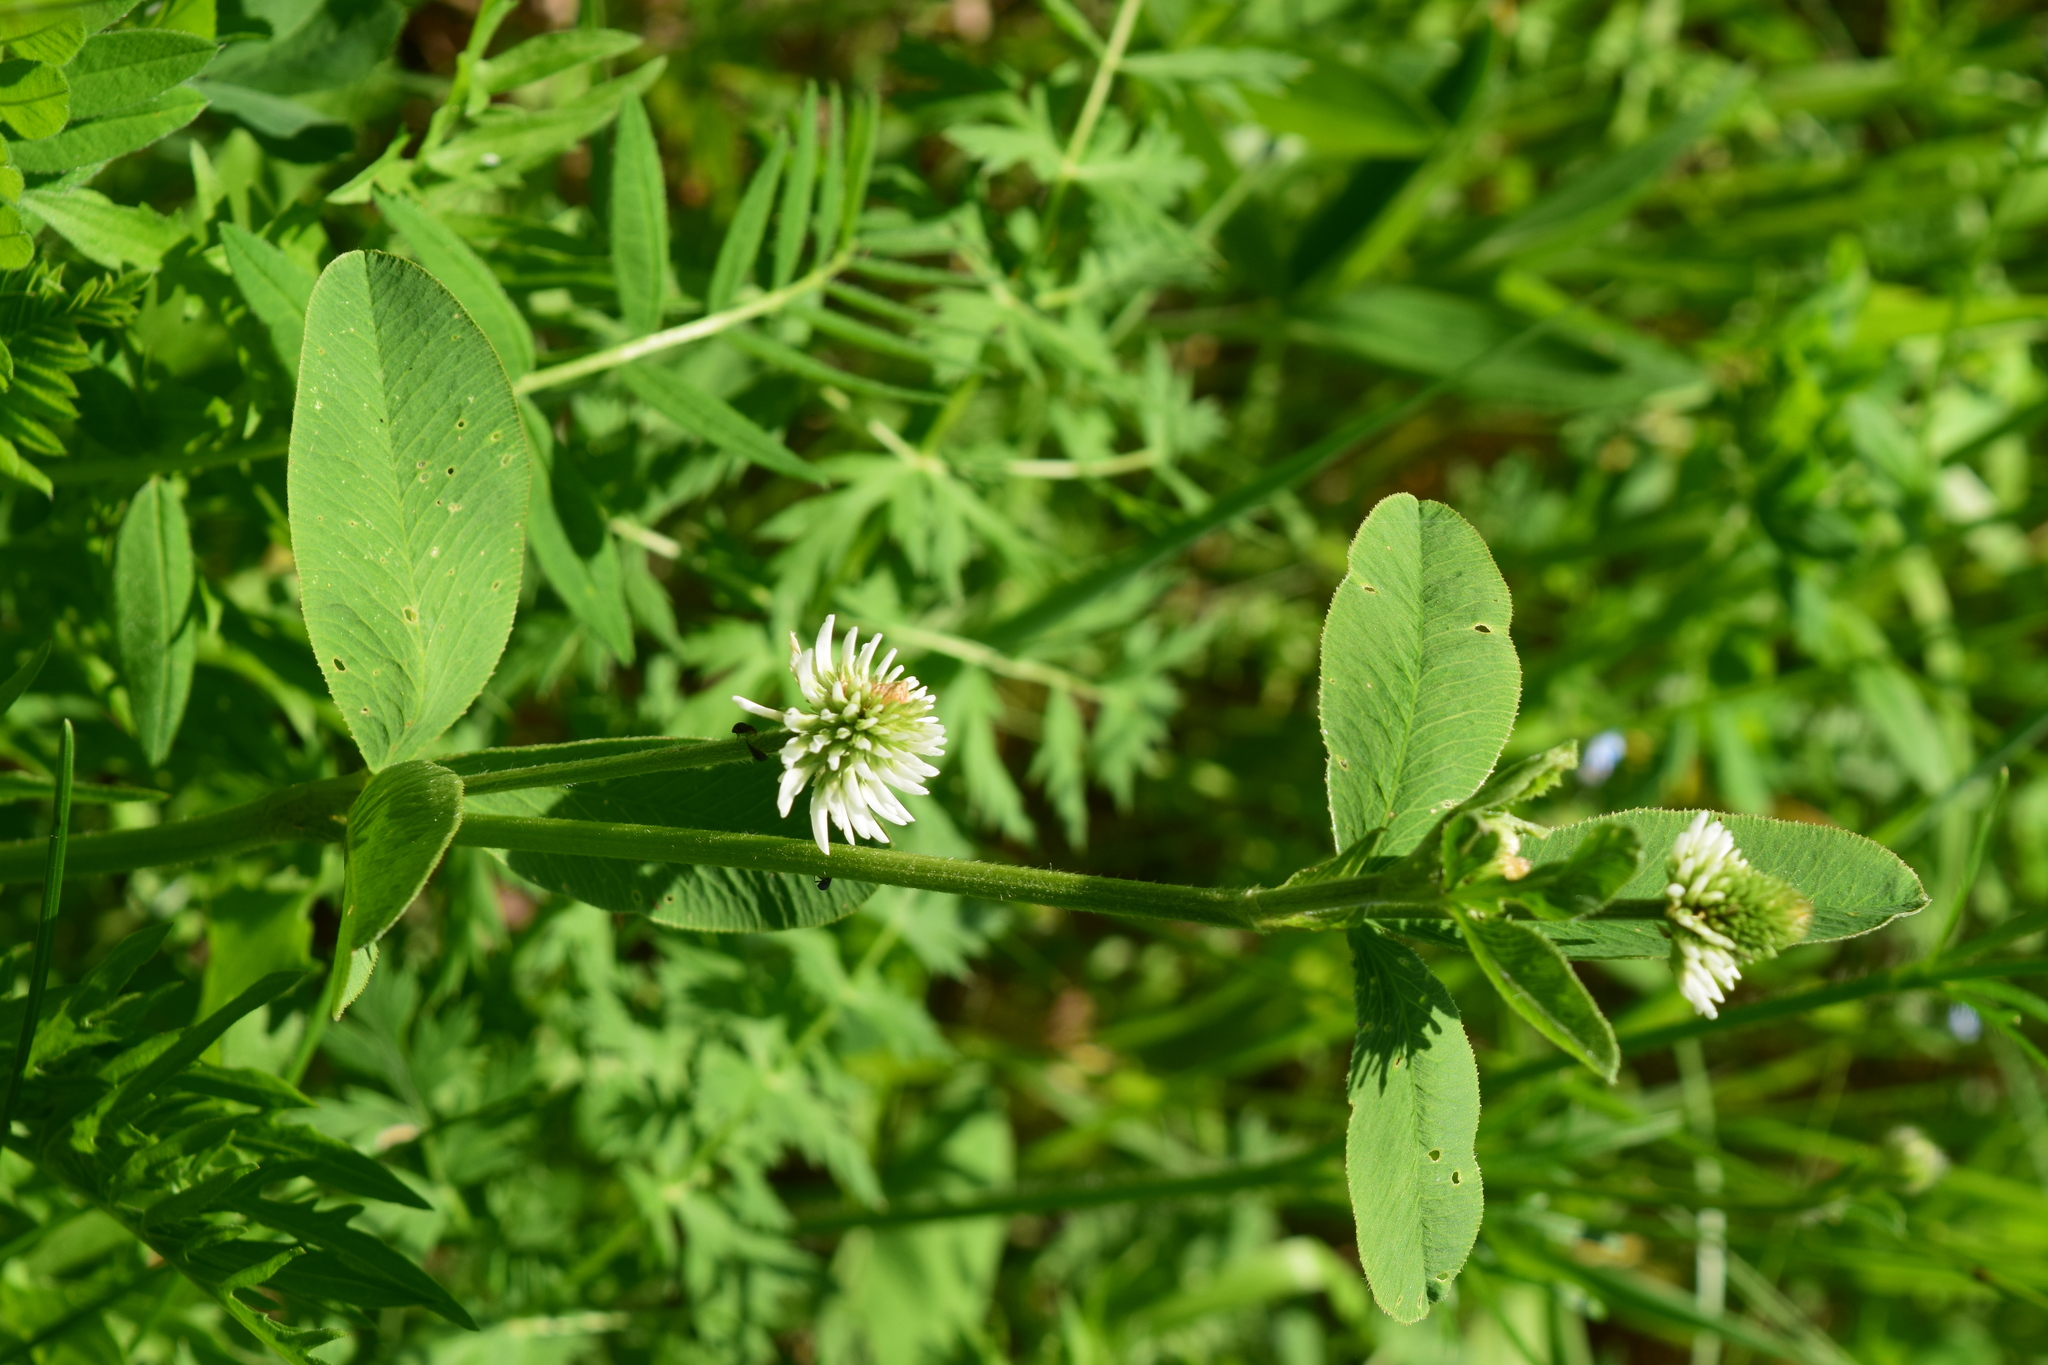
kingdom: Plantae
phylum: Tracheophyta
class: Magnoliopsida
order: Fabales
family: Fabaceae
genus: Trifolium
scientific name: Trifolium montanum
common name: Mountain clover
